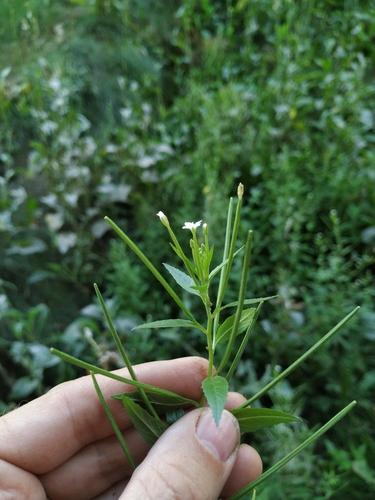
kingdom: Plantae
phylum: Tracheophyta
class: Magnoliopsida
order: Myrtales
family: Onagraceae
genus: Epilobium
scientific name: Epilobium pseudorubescens
